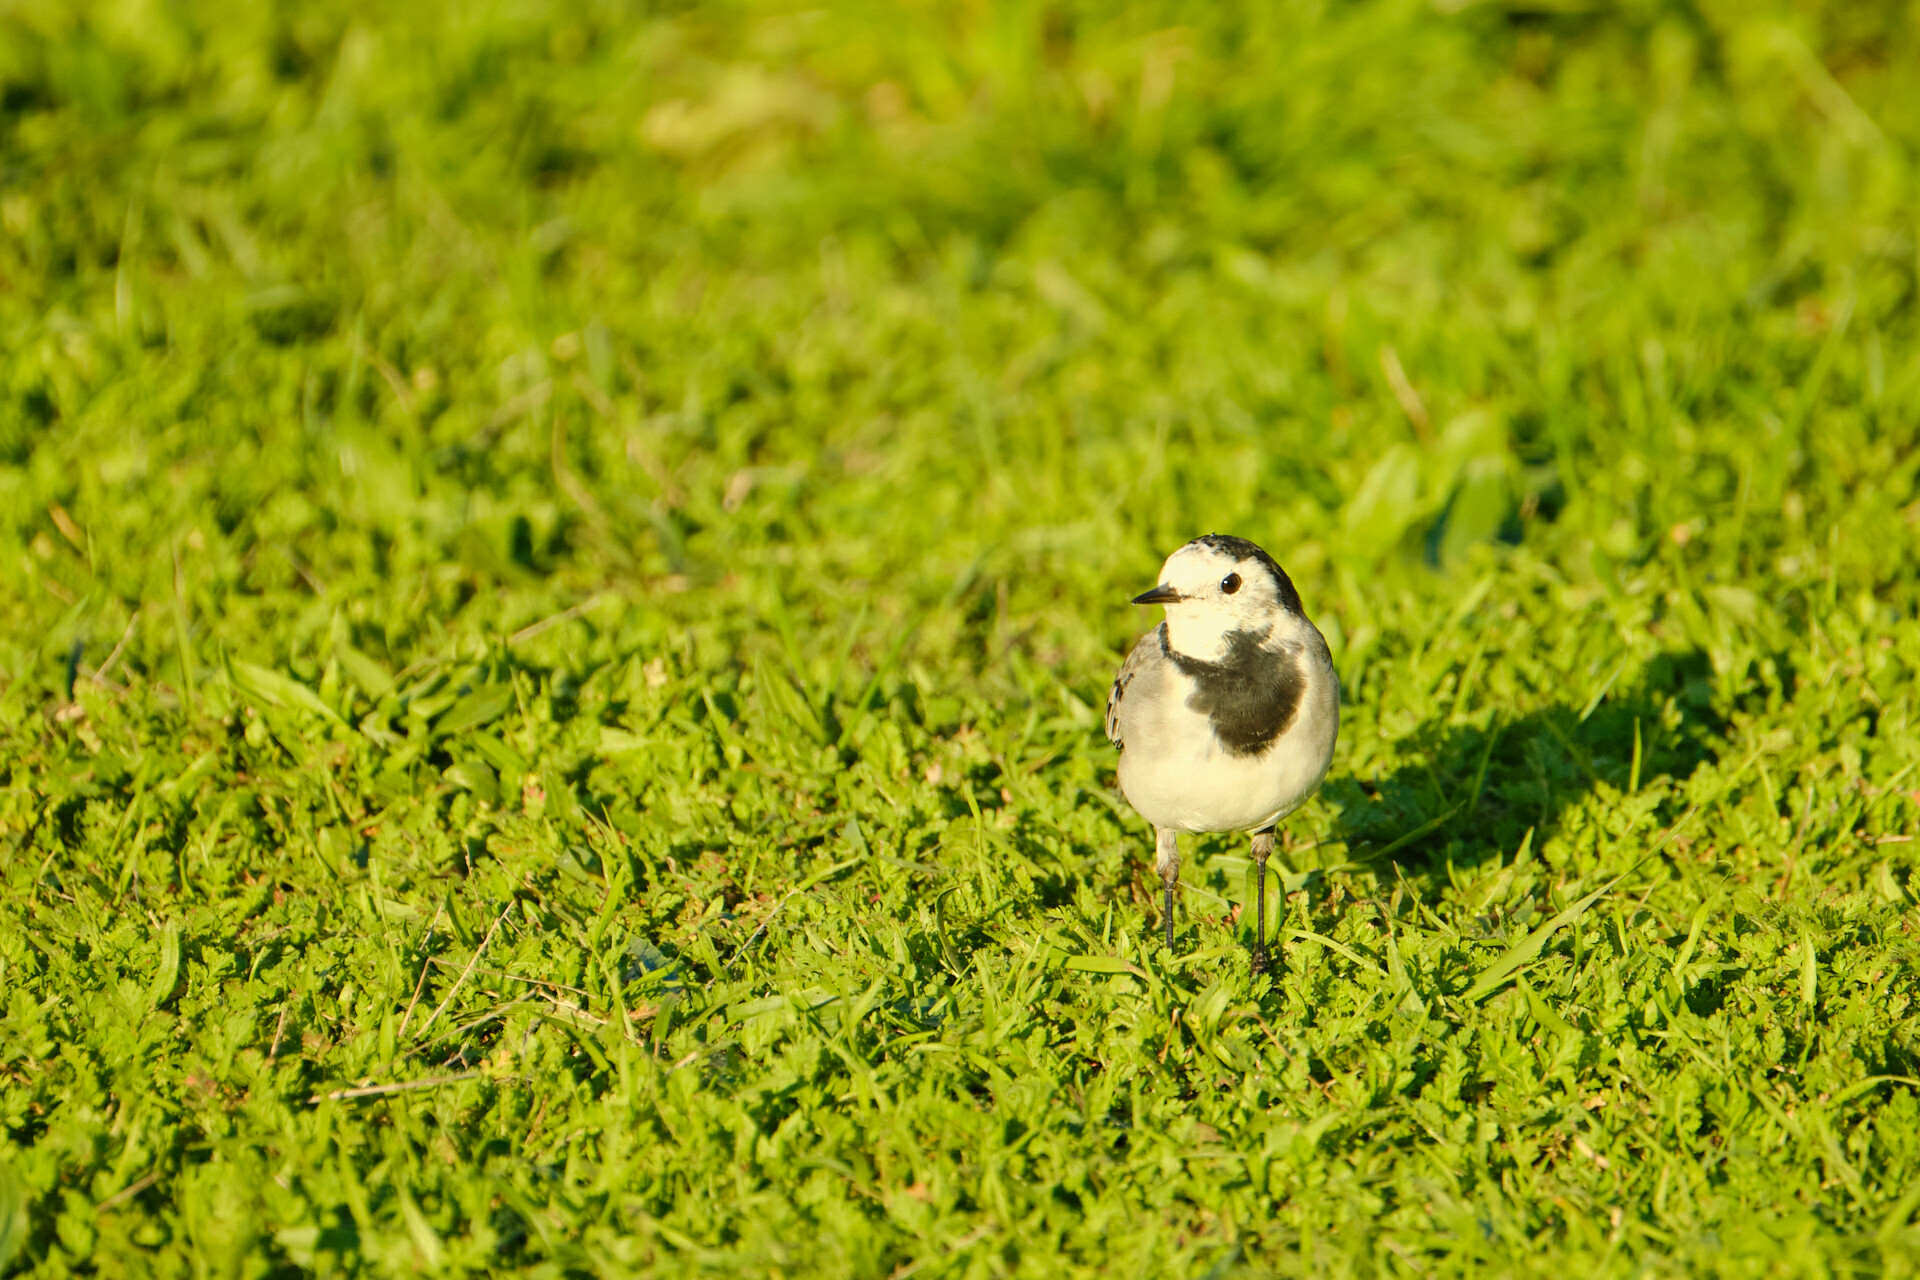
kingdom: Animalia
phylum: Chordata
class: Aves
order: Passeriformes
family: Motacillidae
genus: Motacilla
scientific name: Motacilla alba
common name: White wagtail
